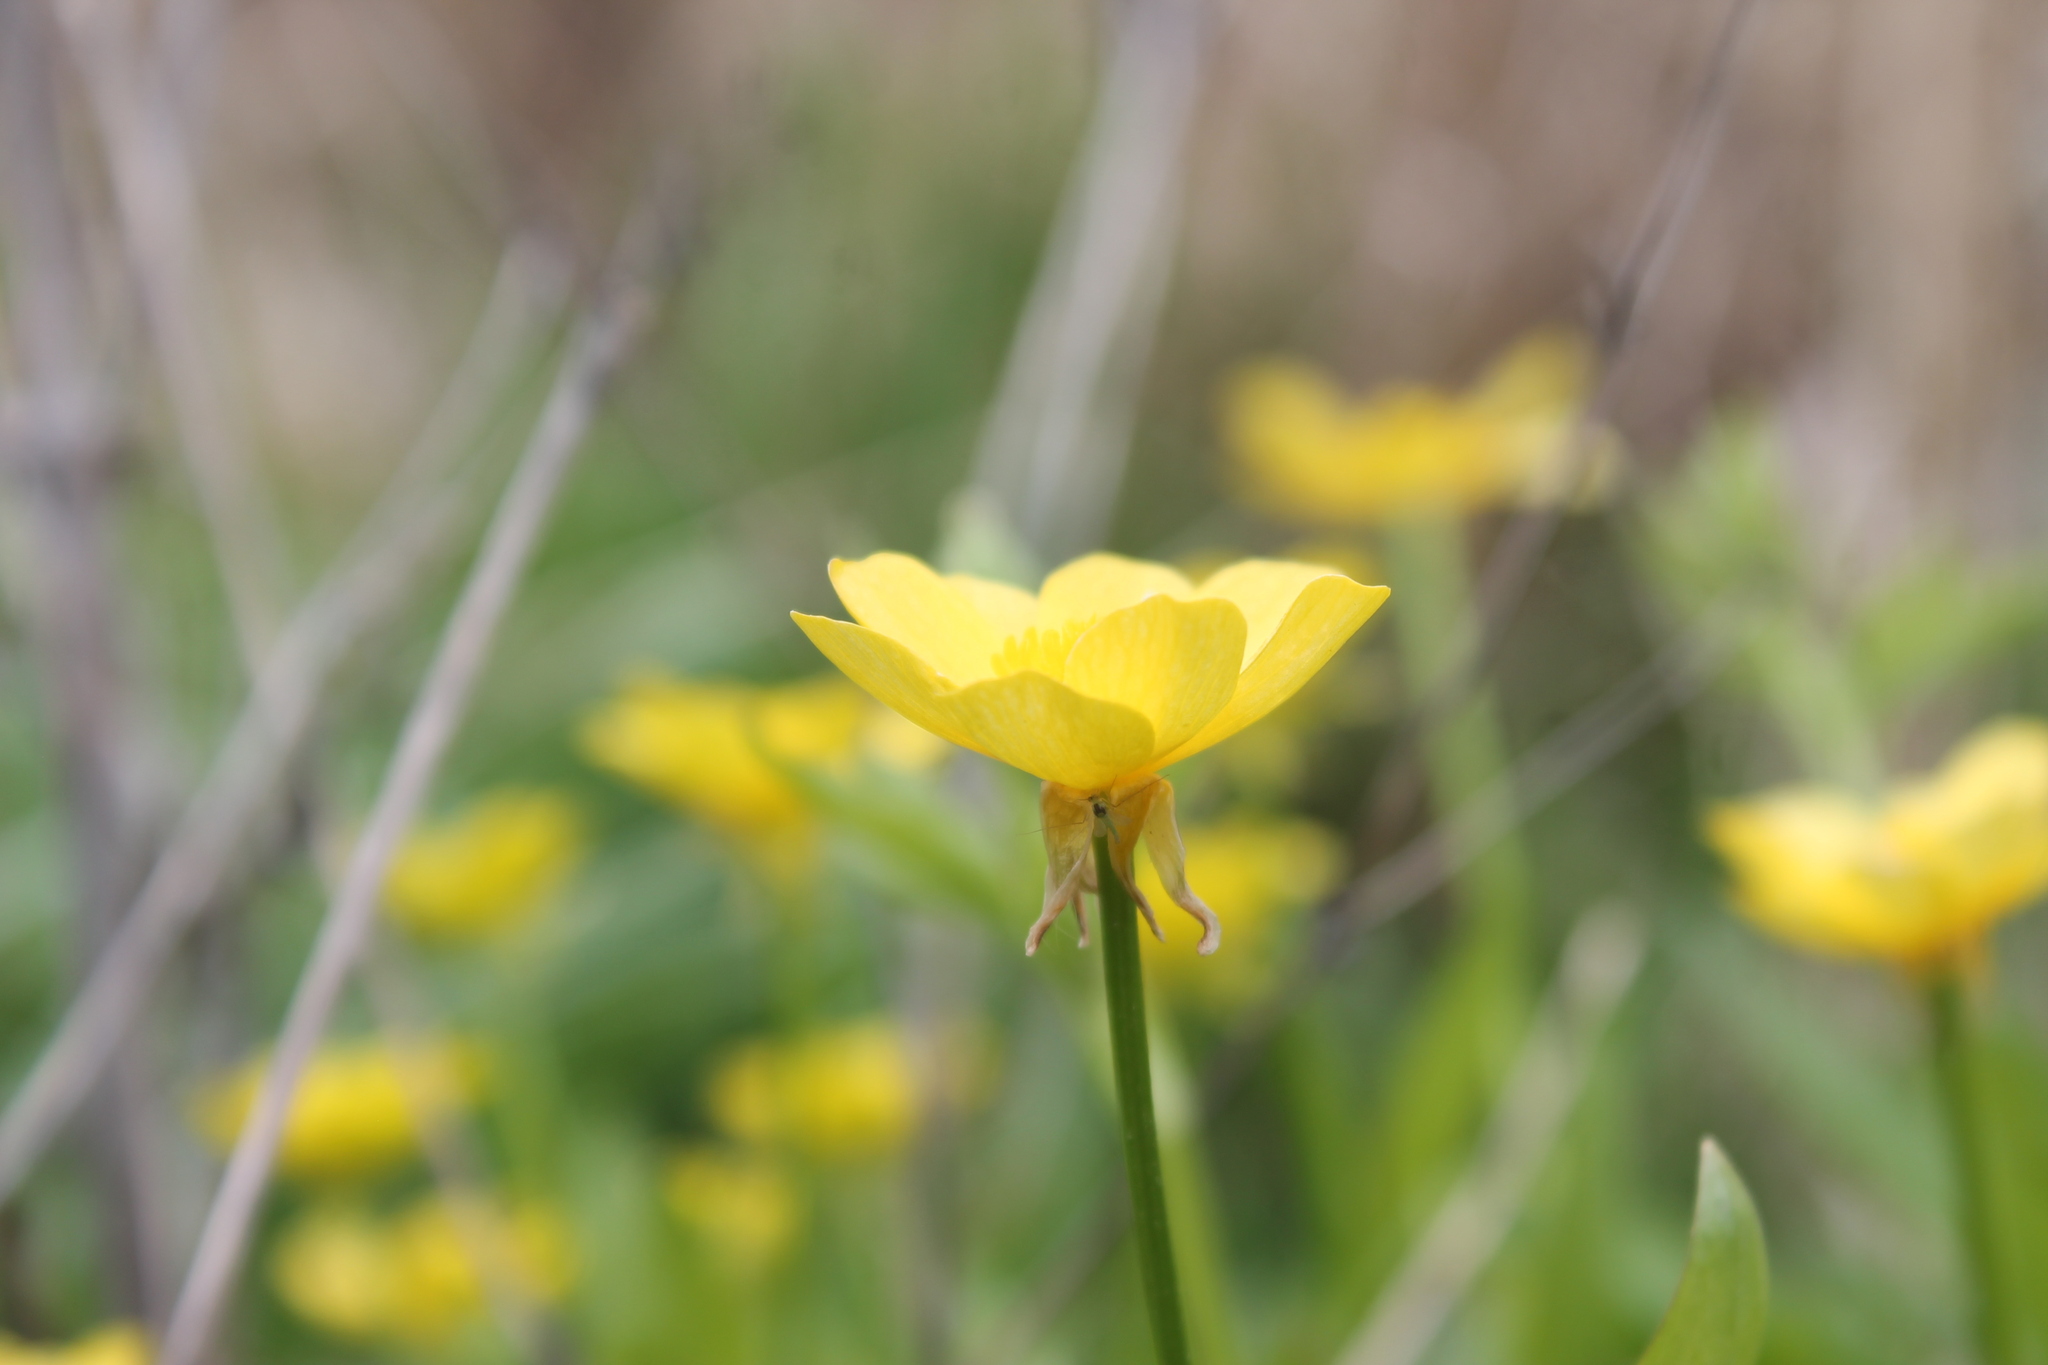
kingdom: Plantae
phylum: Tracheophyta
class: Magnoliopsida
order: Ranunculales
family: Ranunculaceae
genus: Ranunculus
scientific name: Ranunculus hispidus
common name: Bristly buttercup
